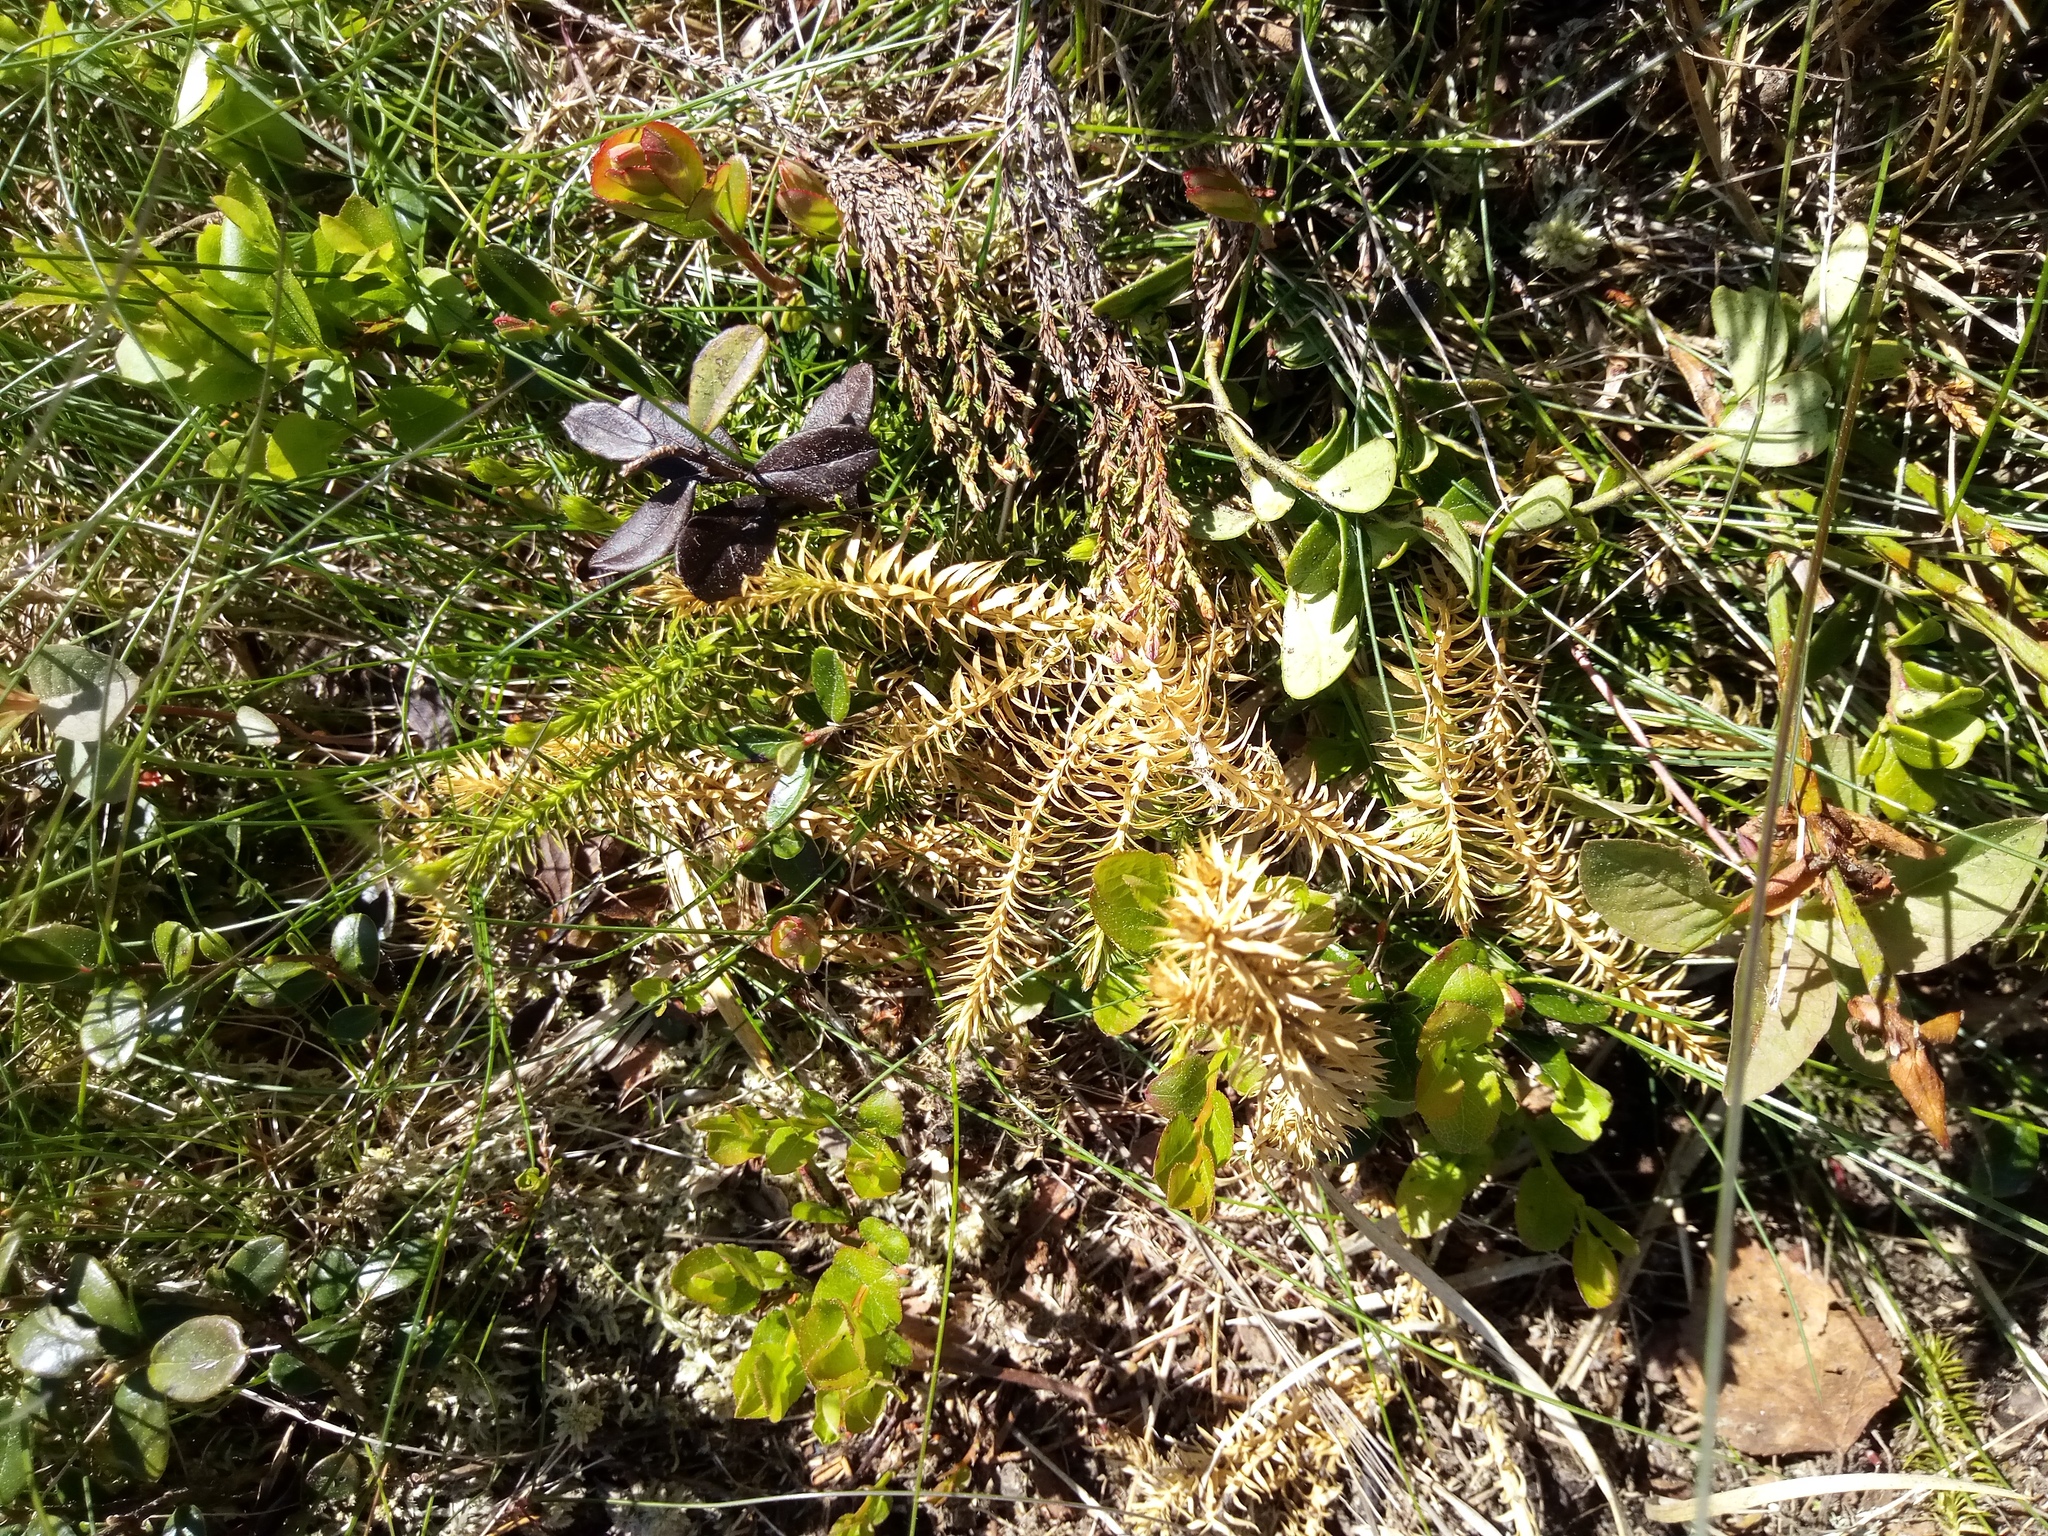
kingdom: Plantae
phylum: Tracheophyta
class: Lycopodiopsida
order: Lycopodiales
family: Lycopodiaceae
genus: Spinulum
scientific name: Spinulum annotinum
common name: Interrupted club-moss
